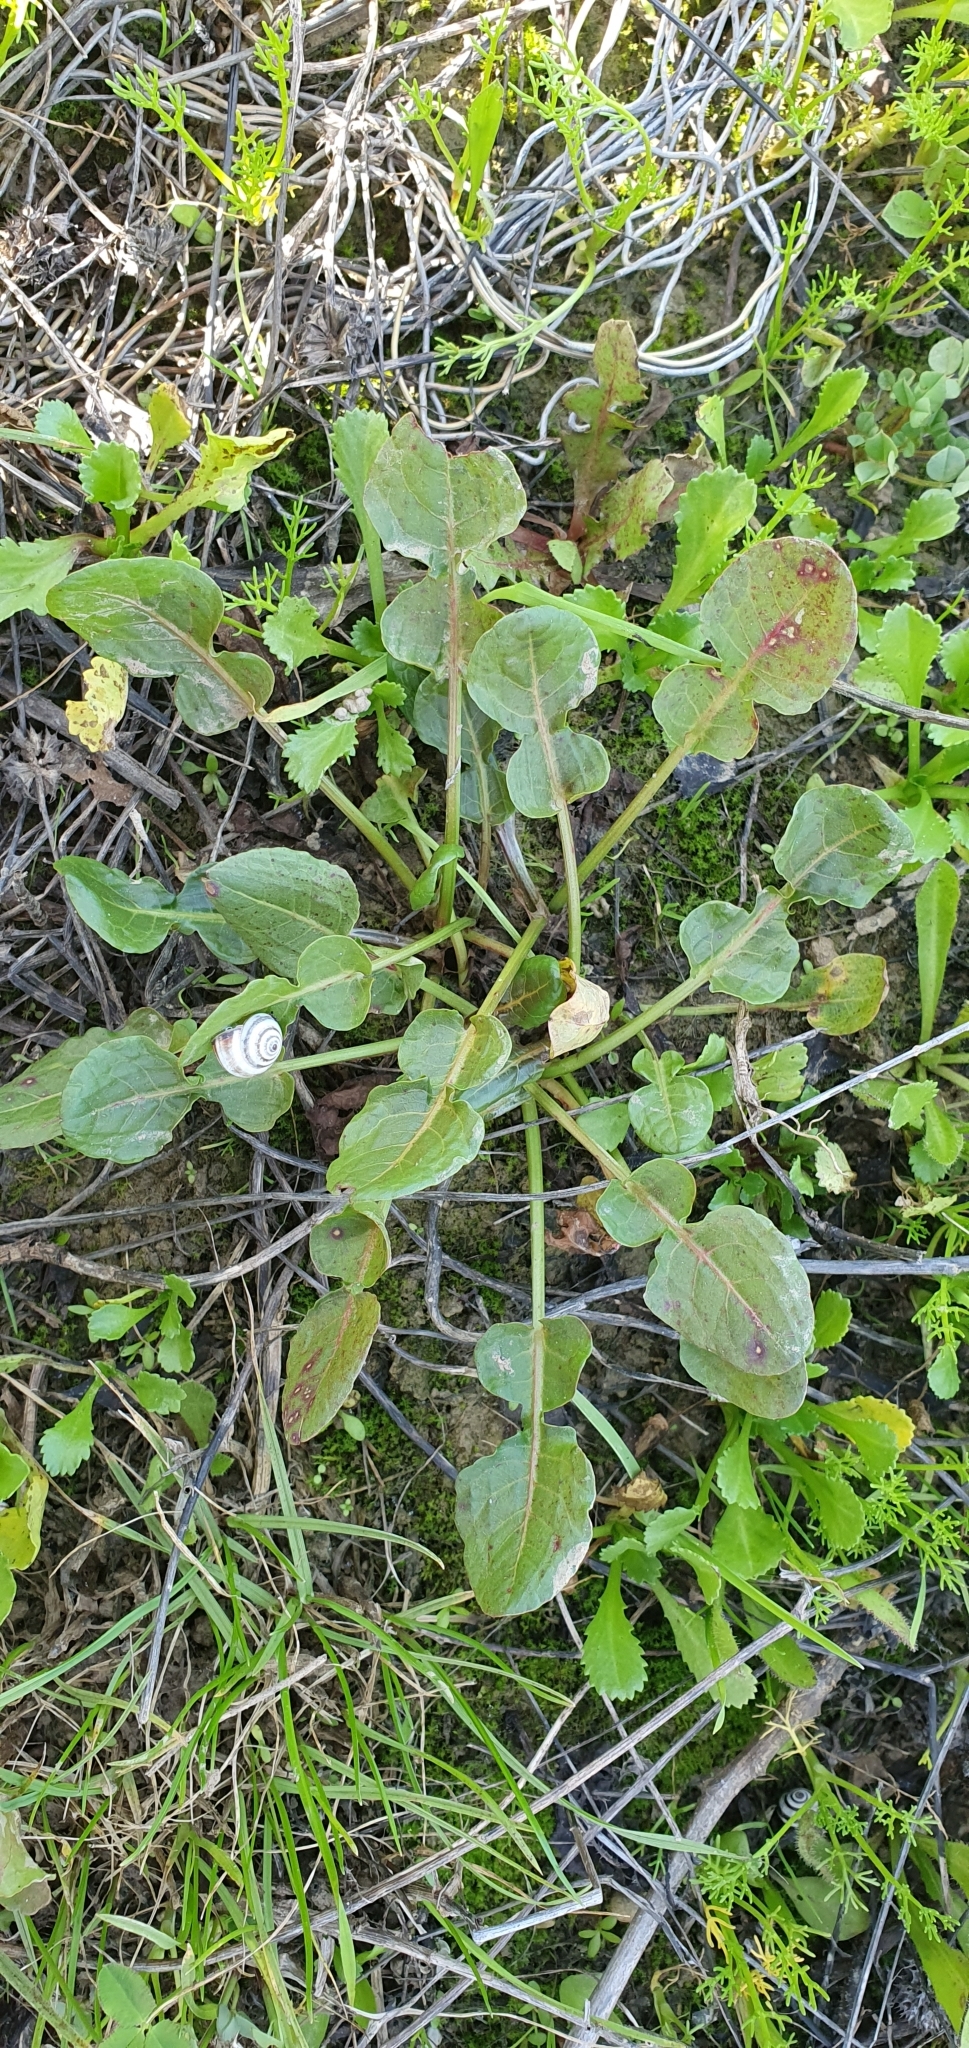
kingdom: Plantae
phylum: Tracheophyta
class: Magnoliopsida
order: Caryophyllales
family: Polygonaceae
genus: Rumex
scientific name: Rumex pulcher
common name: Fiddle dock
